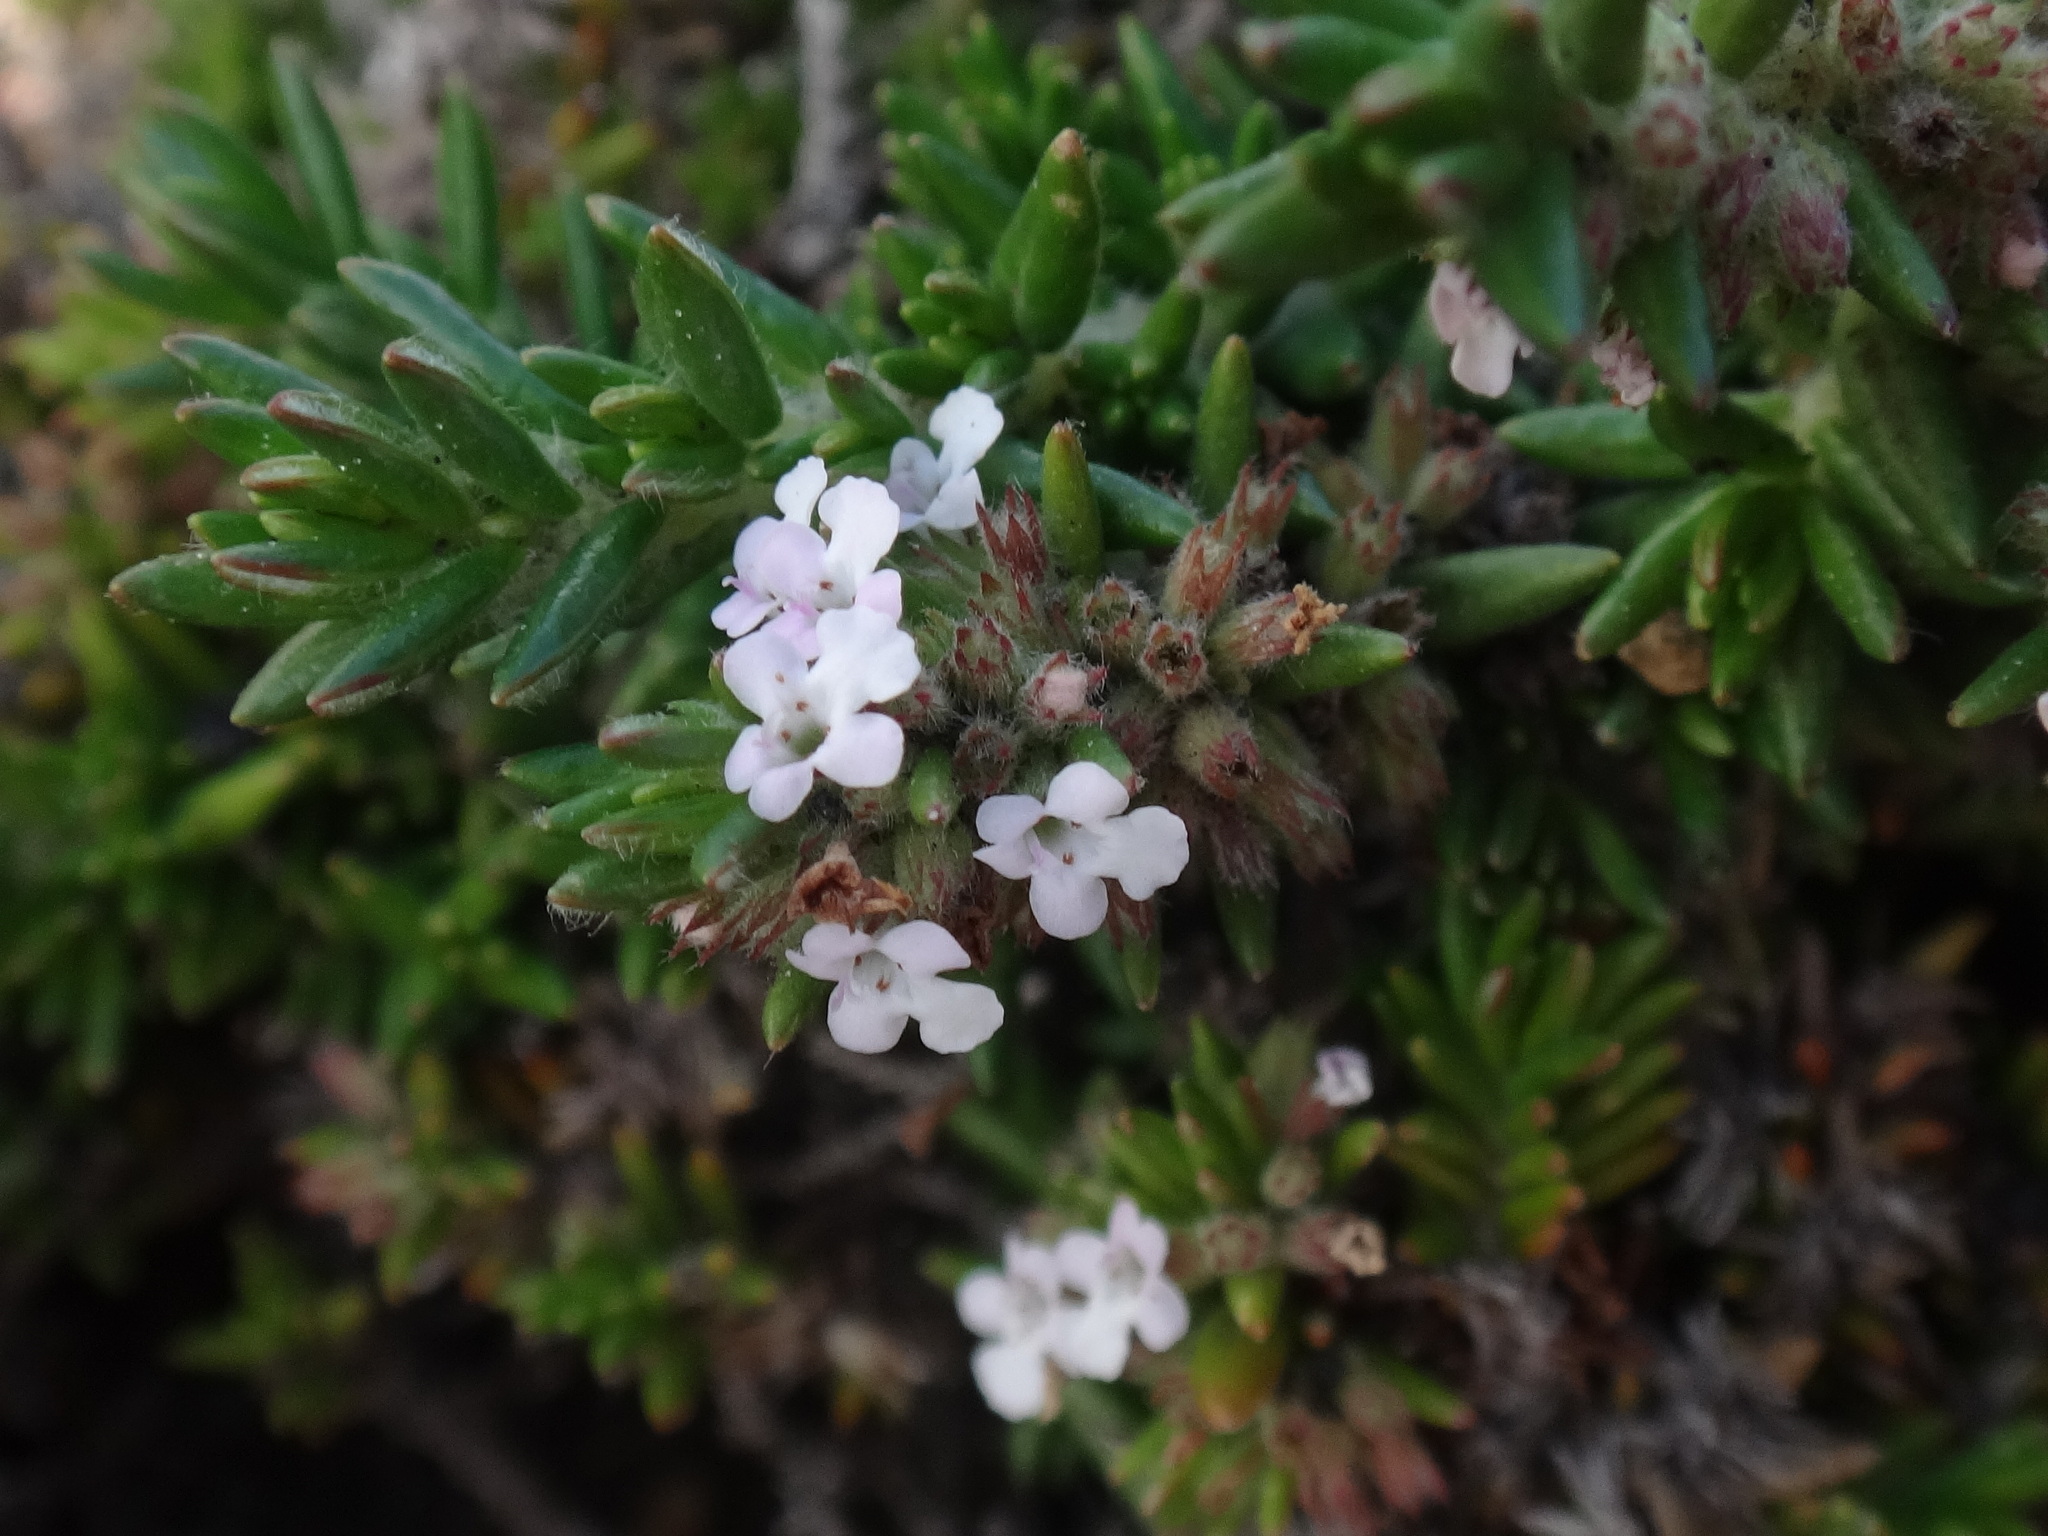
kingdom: Plantae
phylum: Tracheophyta
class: Magnoliopsida
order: Lamiales
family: Lamiaceae
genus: Micromeria
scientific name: Micromeria herpyllomorpha
